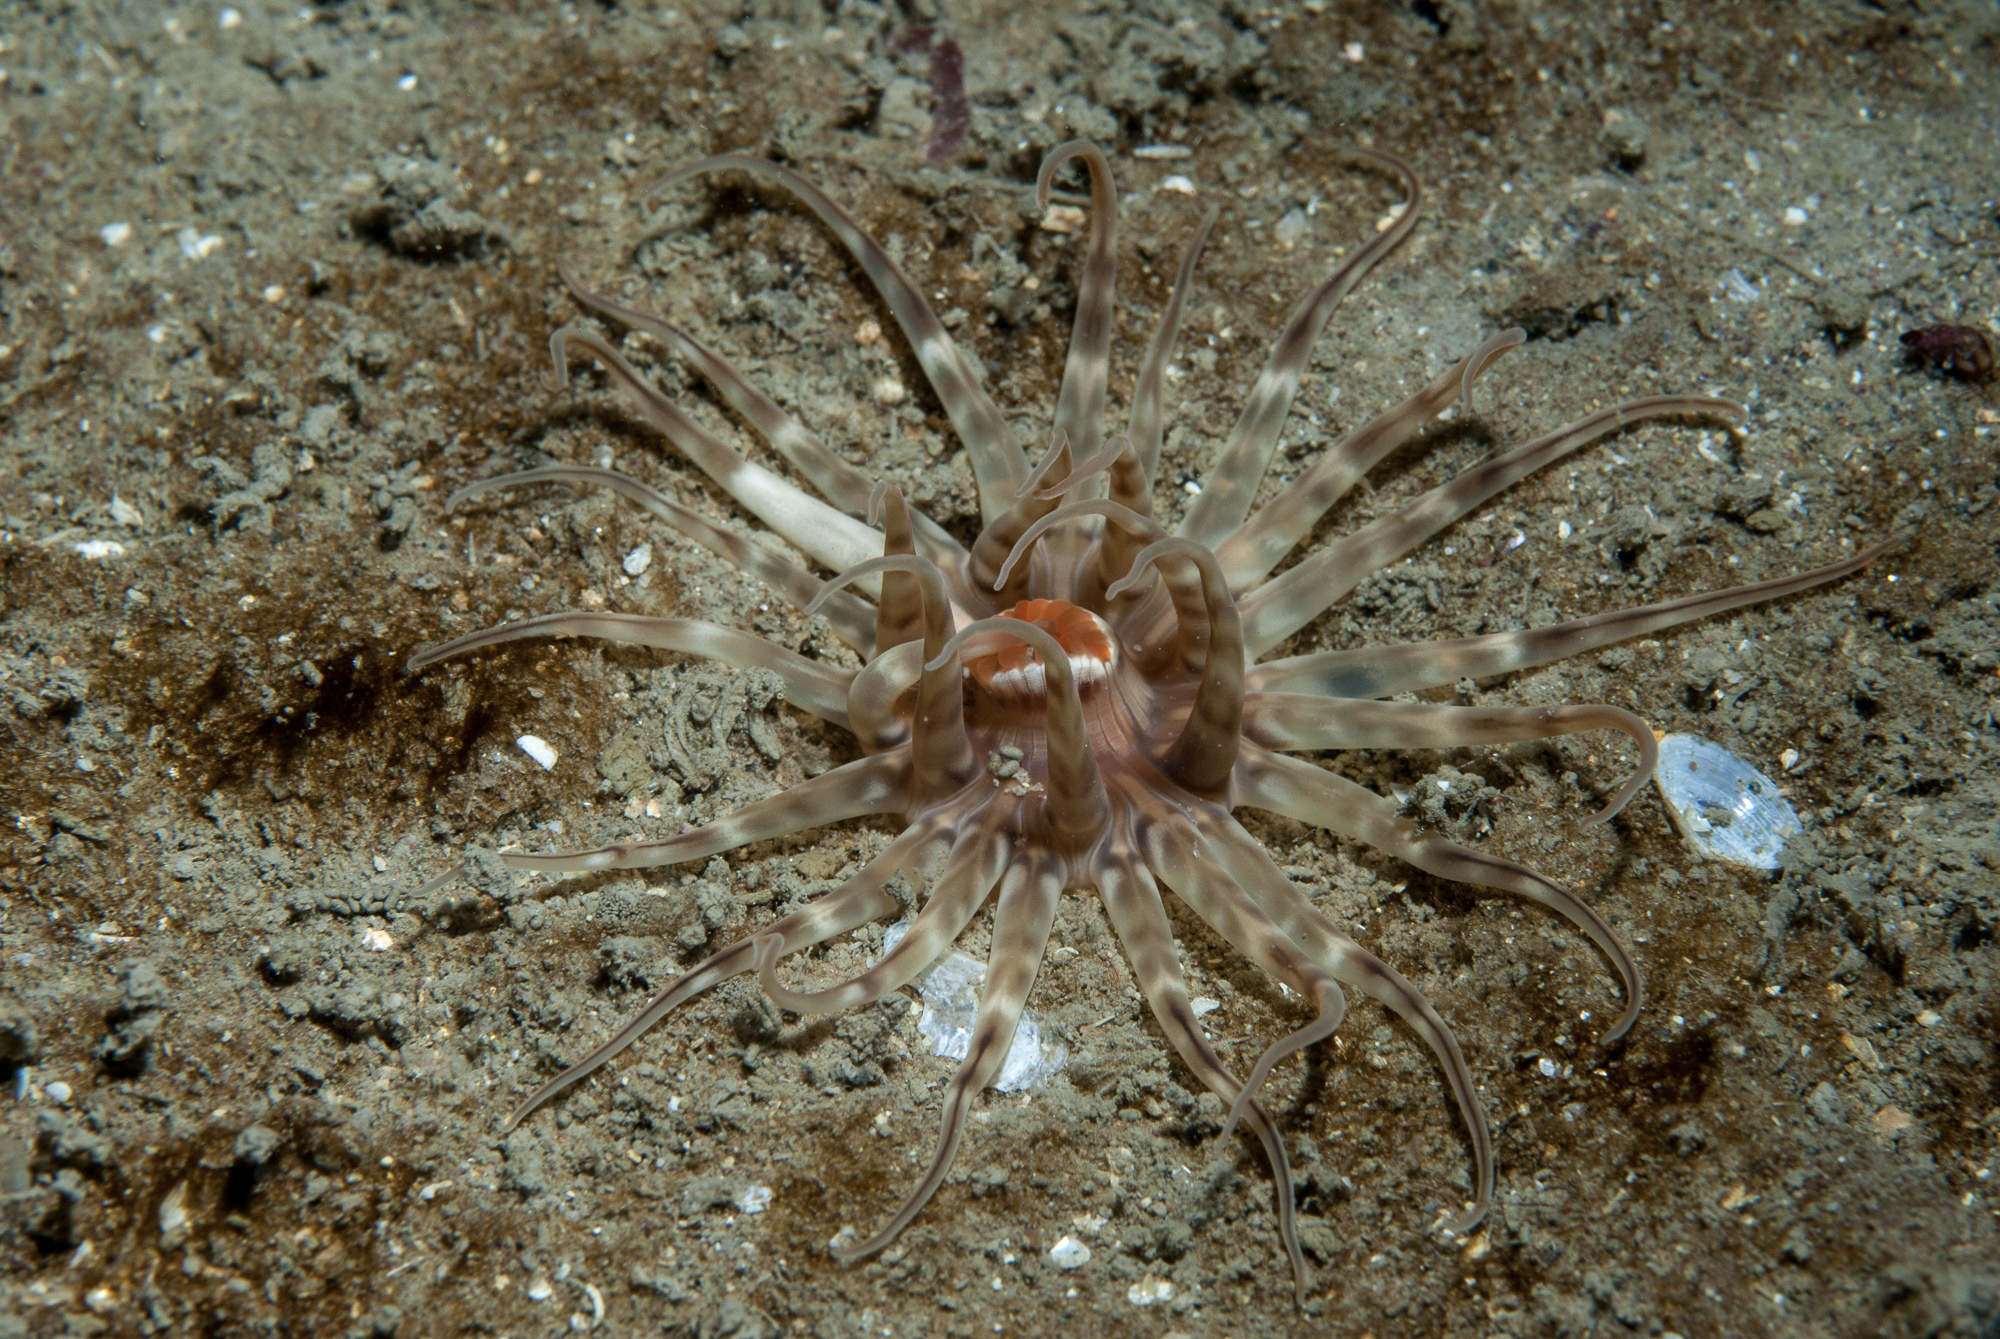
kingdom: Animalia
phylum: Cnidaria
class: Anthozoa
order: Actiniaria
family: Haloclavidae
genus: Mesacmaea
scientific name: Mesacmaea mitchellii
